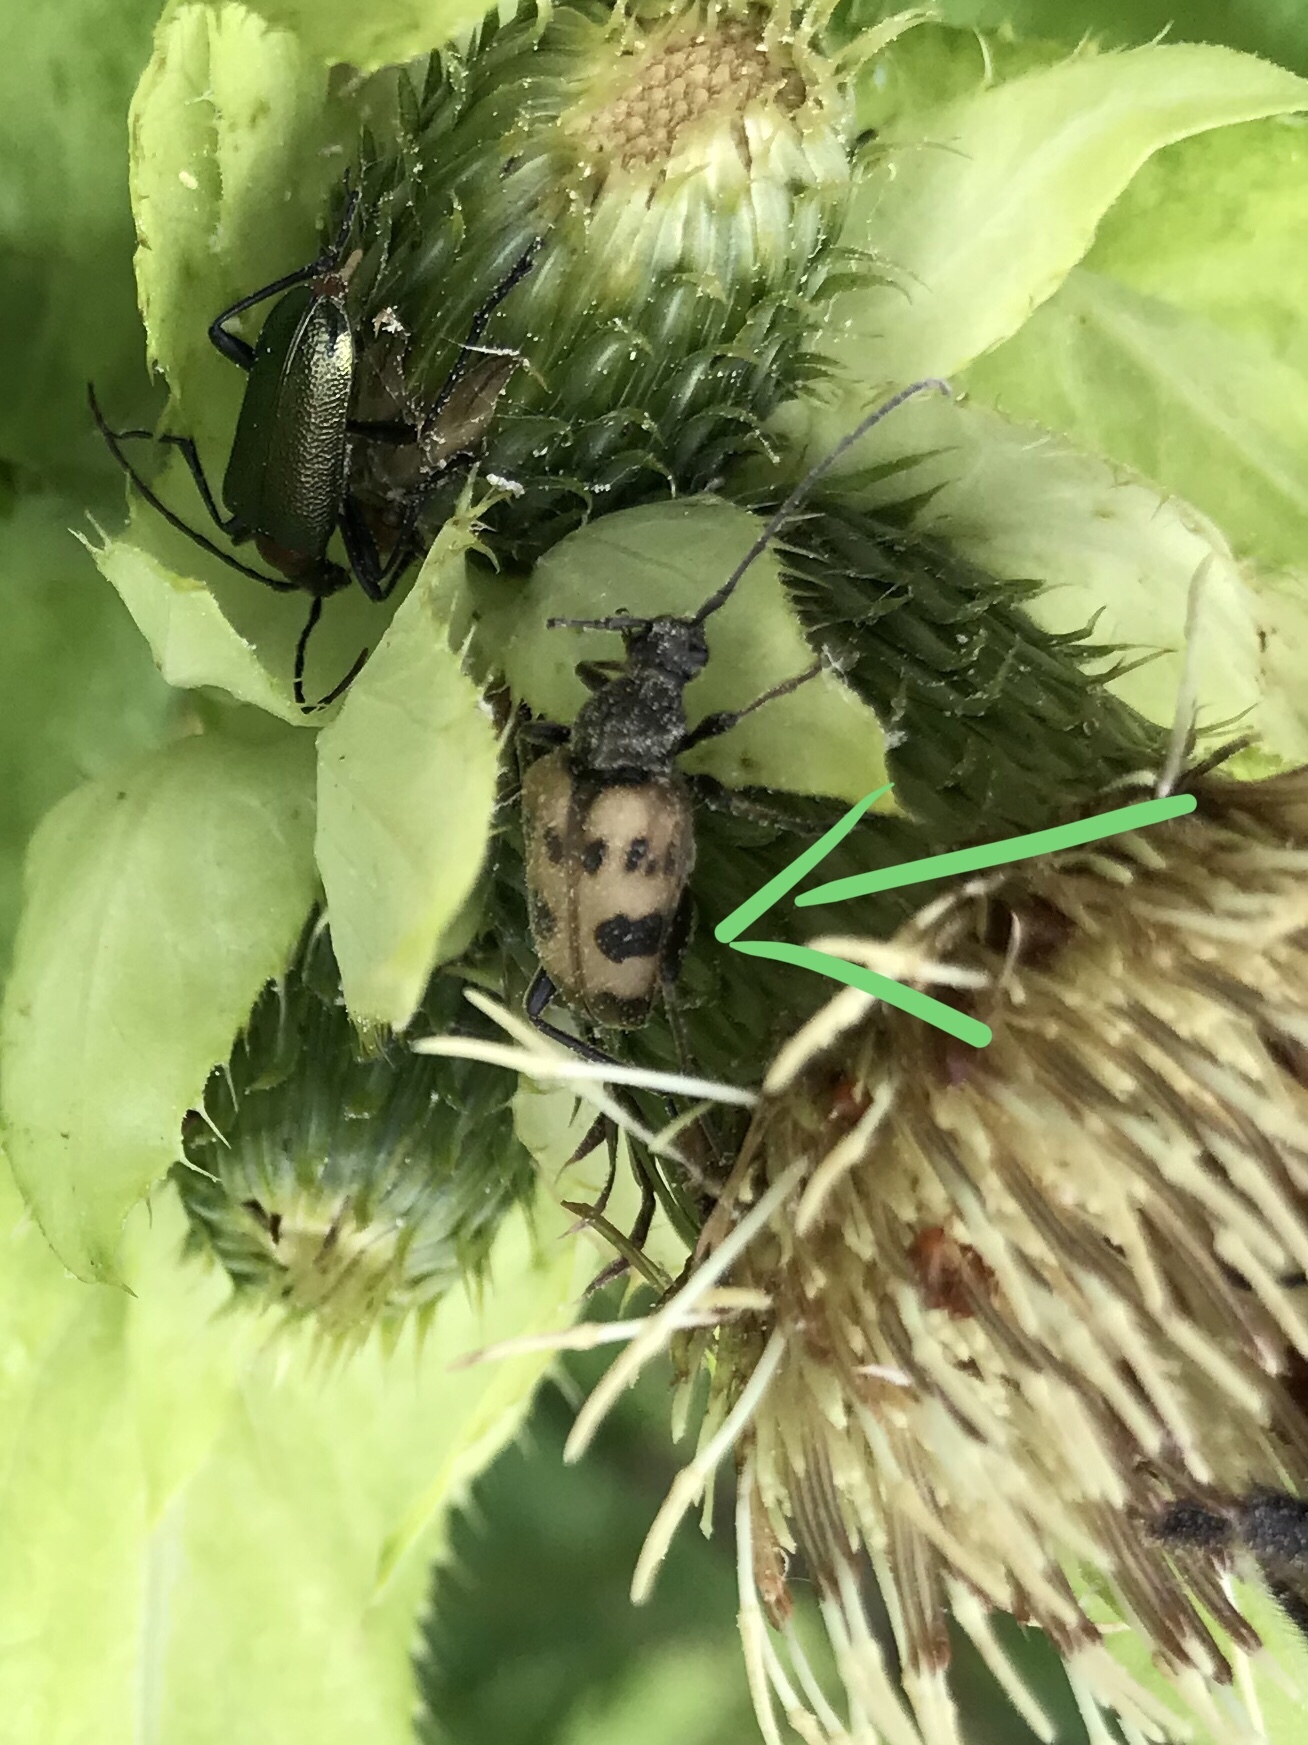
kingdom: Animalia
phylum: Arthropoda
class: Insecta
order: Coleoptera
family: Cerambycidae
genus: Pachytodes
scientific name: Pachytodes cerambyciformis
